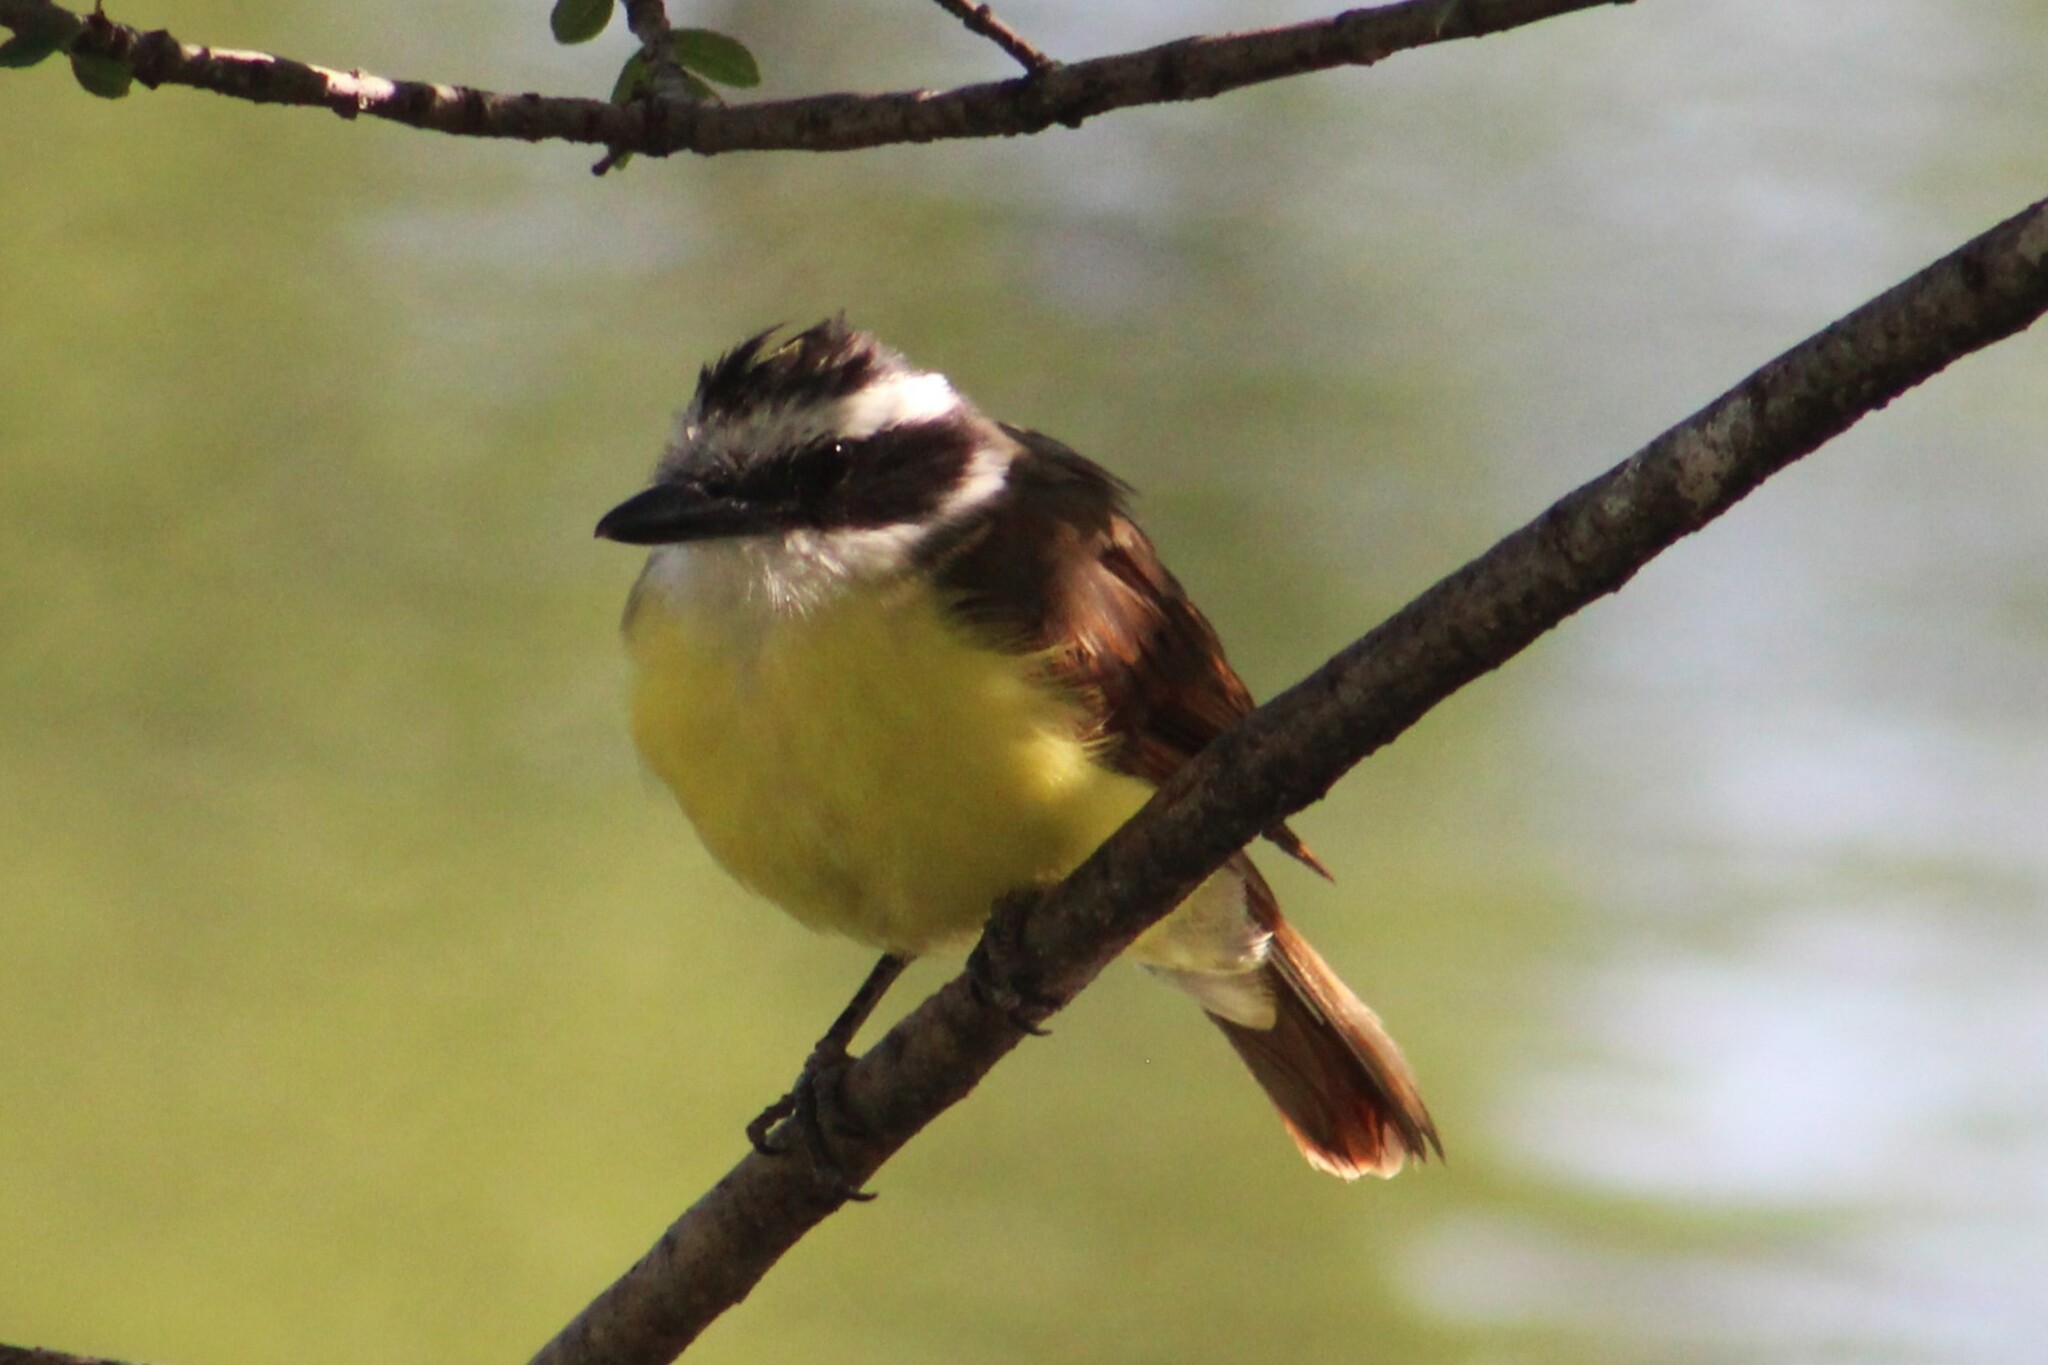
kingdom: Animalia
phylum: Chordata
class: Aves
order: Passeriformes
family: Tyrannidae
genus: Pitangus
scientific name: Pitangus sulphuratus
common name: Great kiskadee
